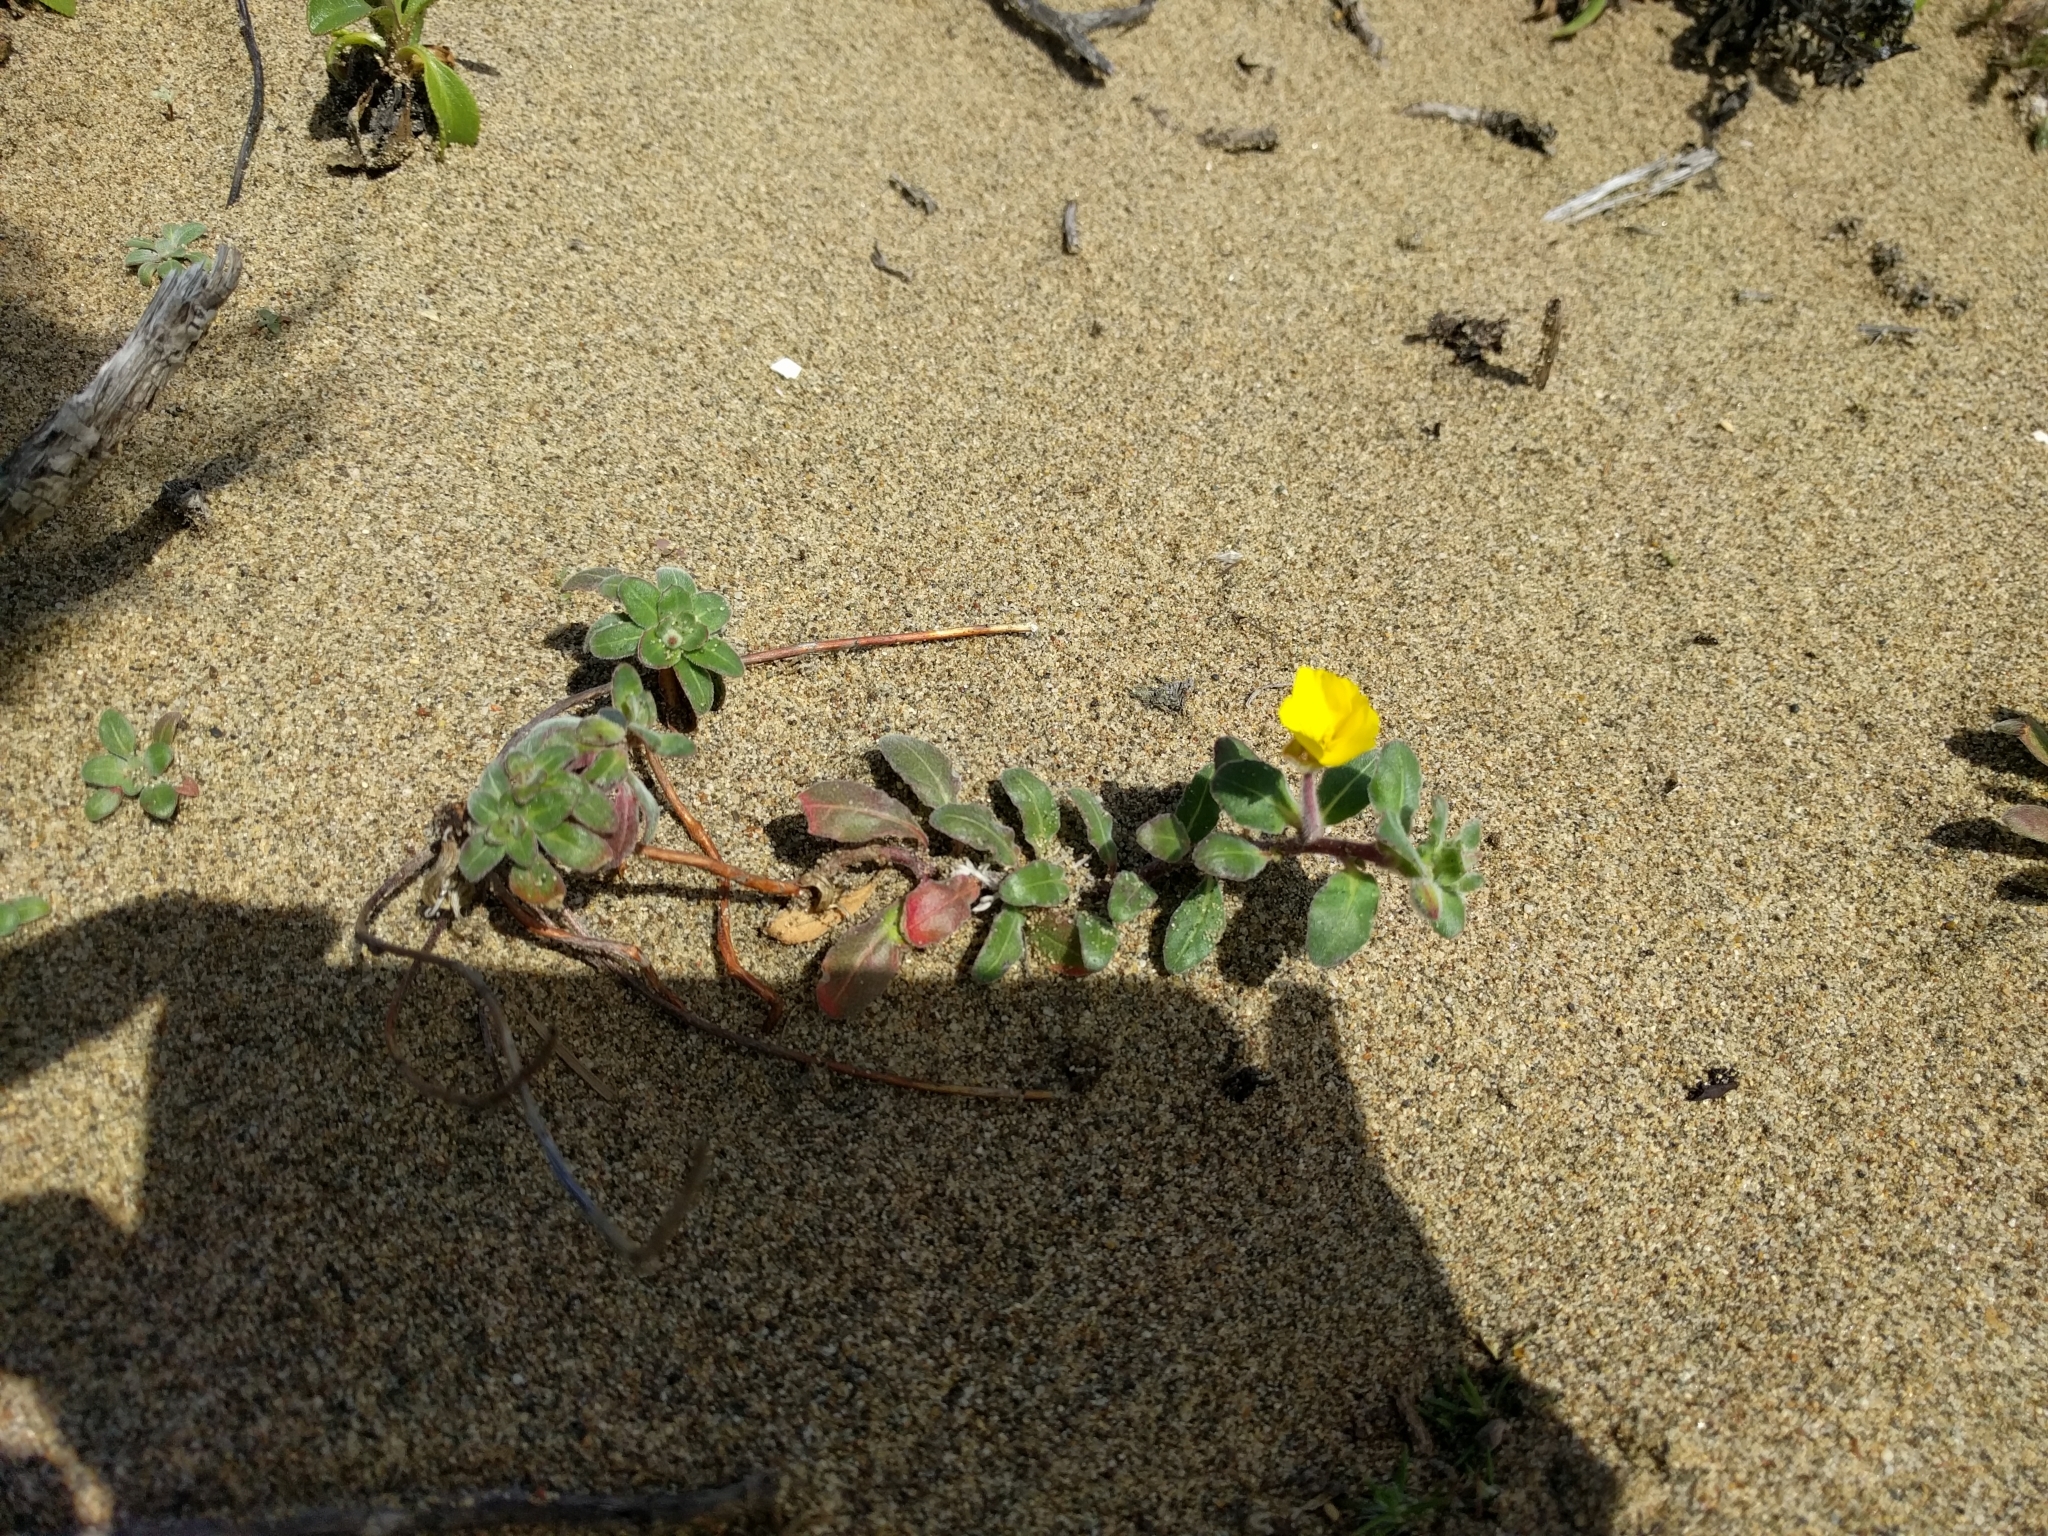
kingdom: Plantae
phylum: Tracheophyta
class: Magnoliopsida
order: Myrtales
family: Onagraceae
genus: Camissoniopsis
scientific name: Camissoniopsis cheiranthifolia
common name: Beach suncup
